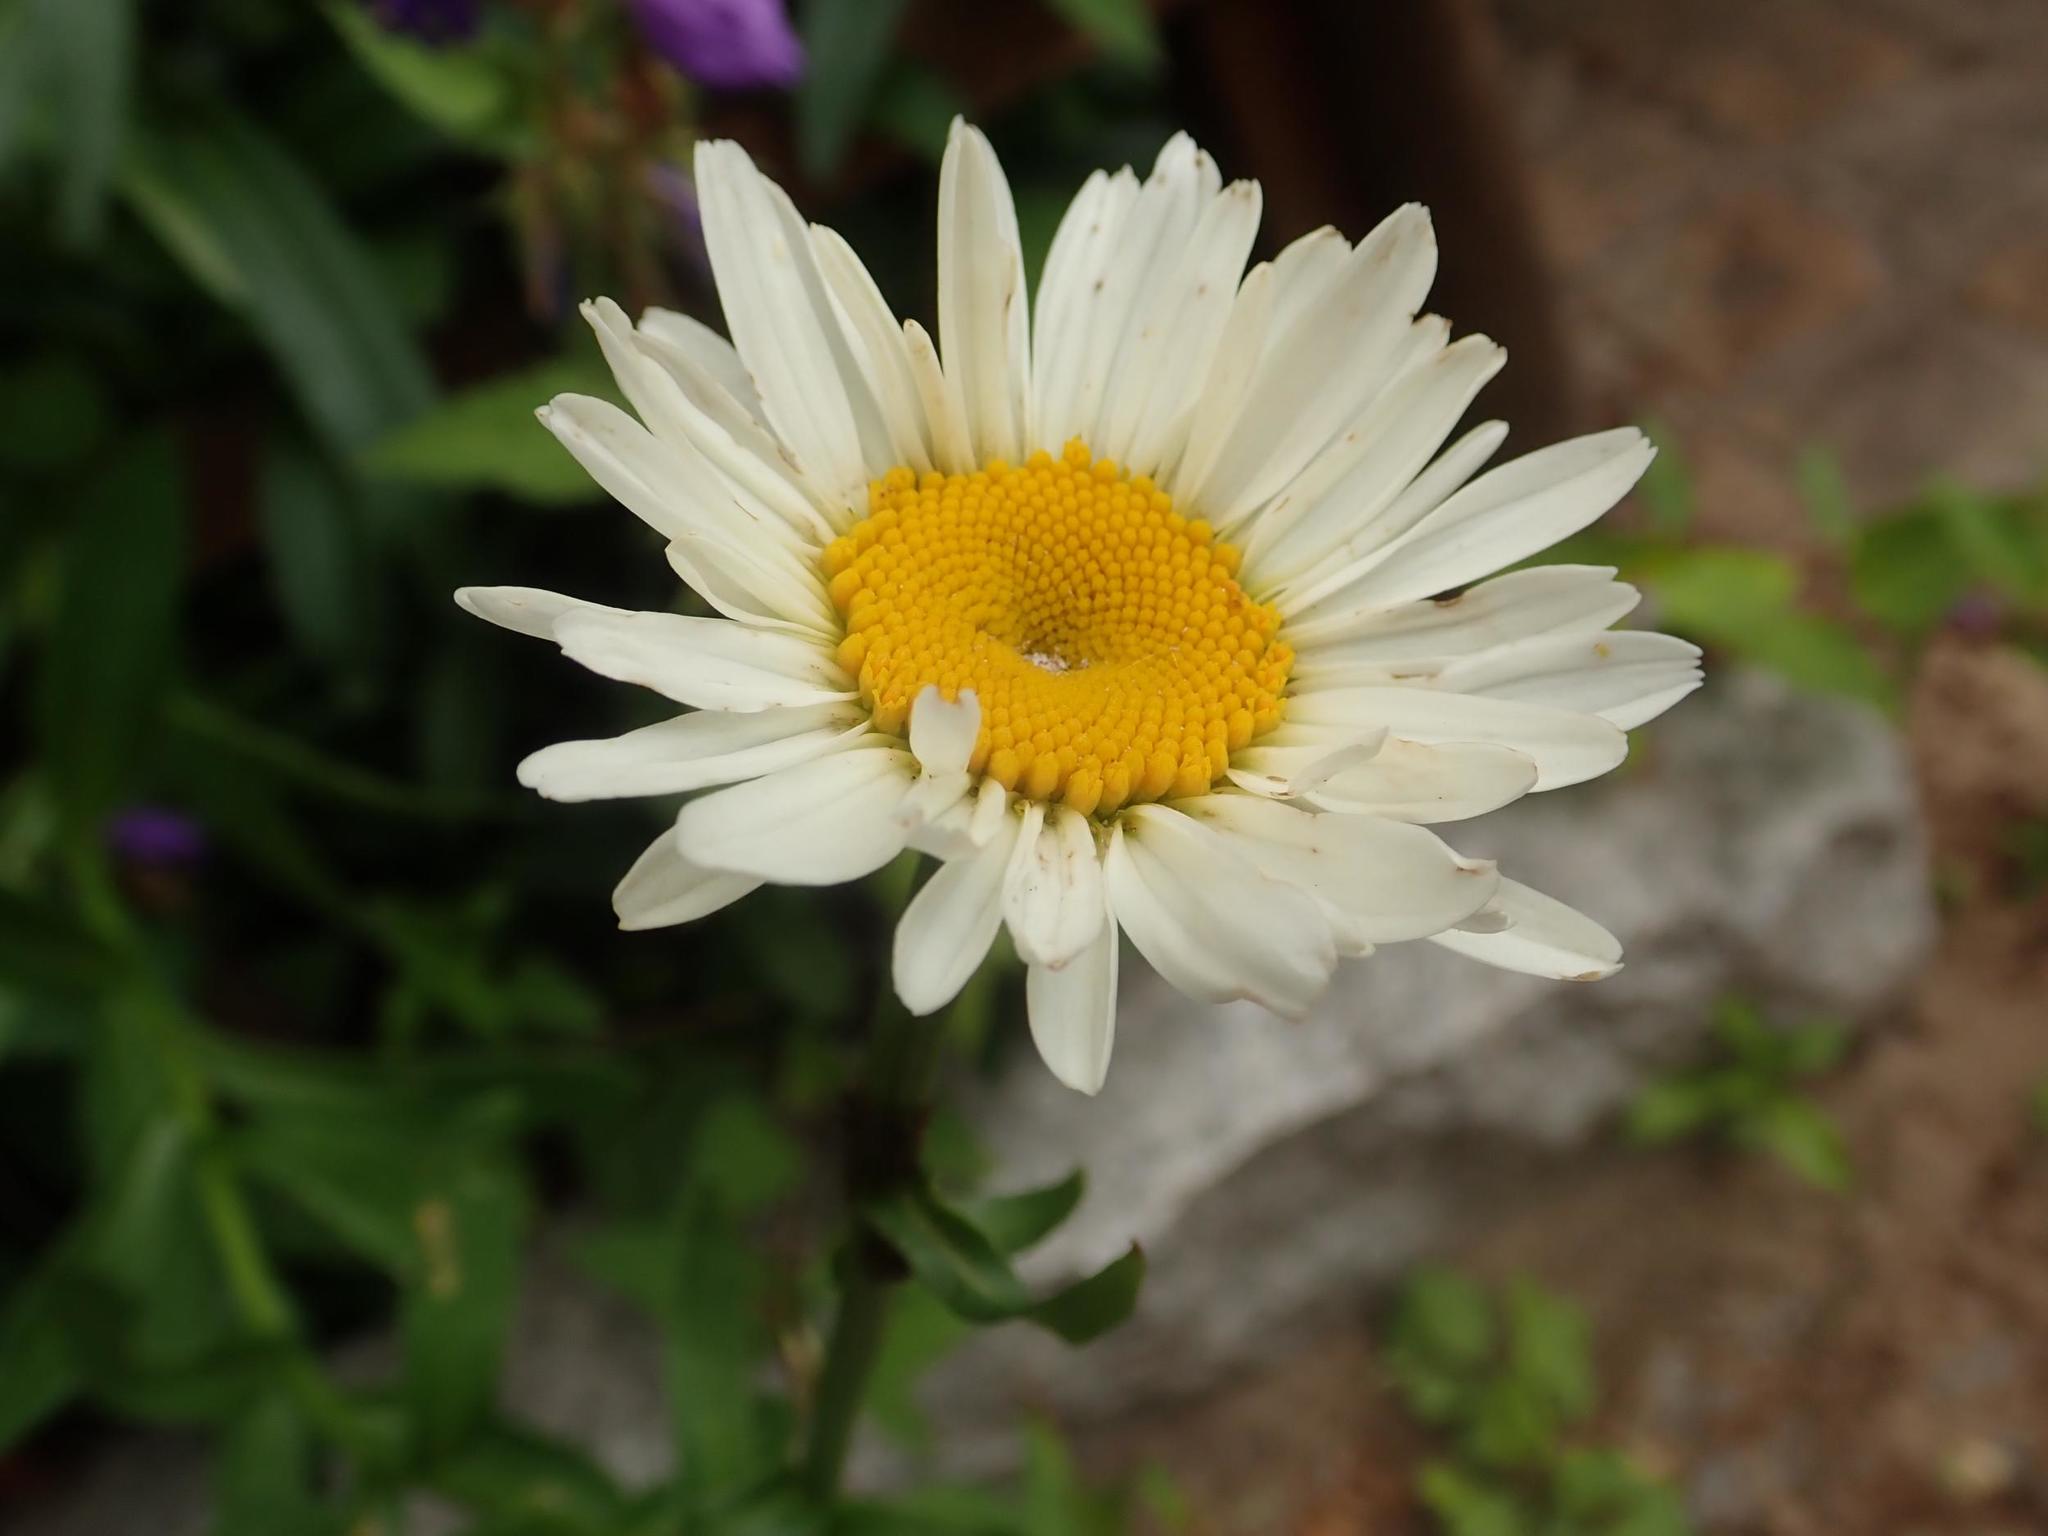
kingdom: Plantae
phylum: Tracheophyta
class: Magnoliopsida
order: Asterales
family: Asteraceae
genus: Leucanthemum
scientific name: Leucanthemum vulgare
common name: Oxeye daisy
